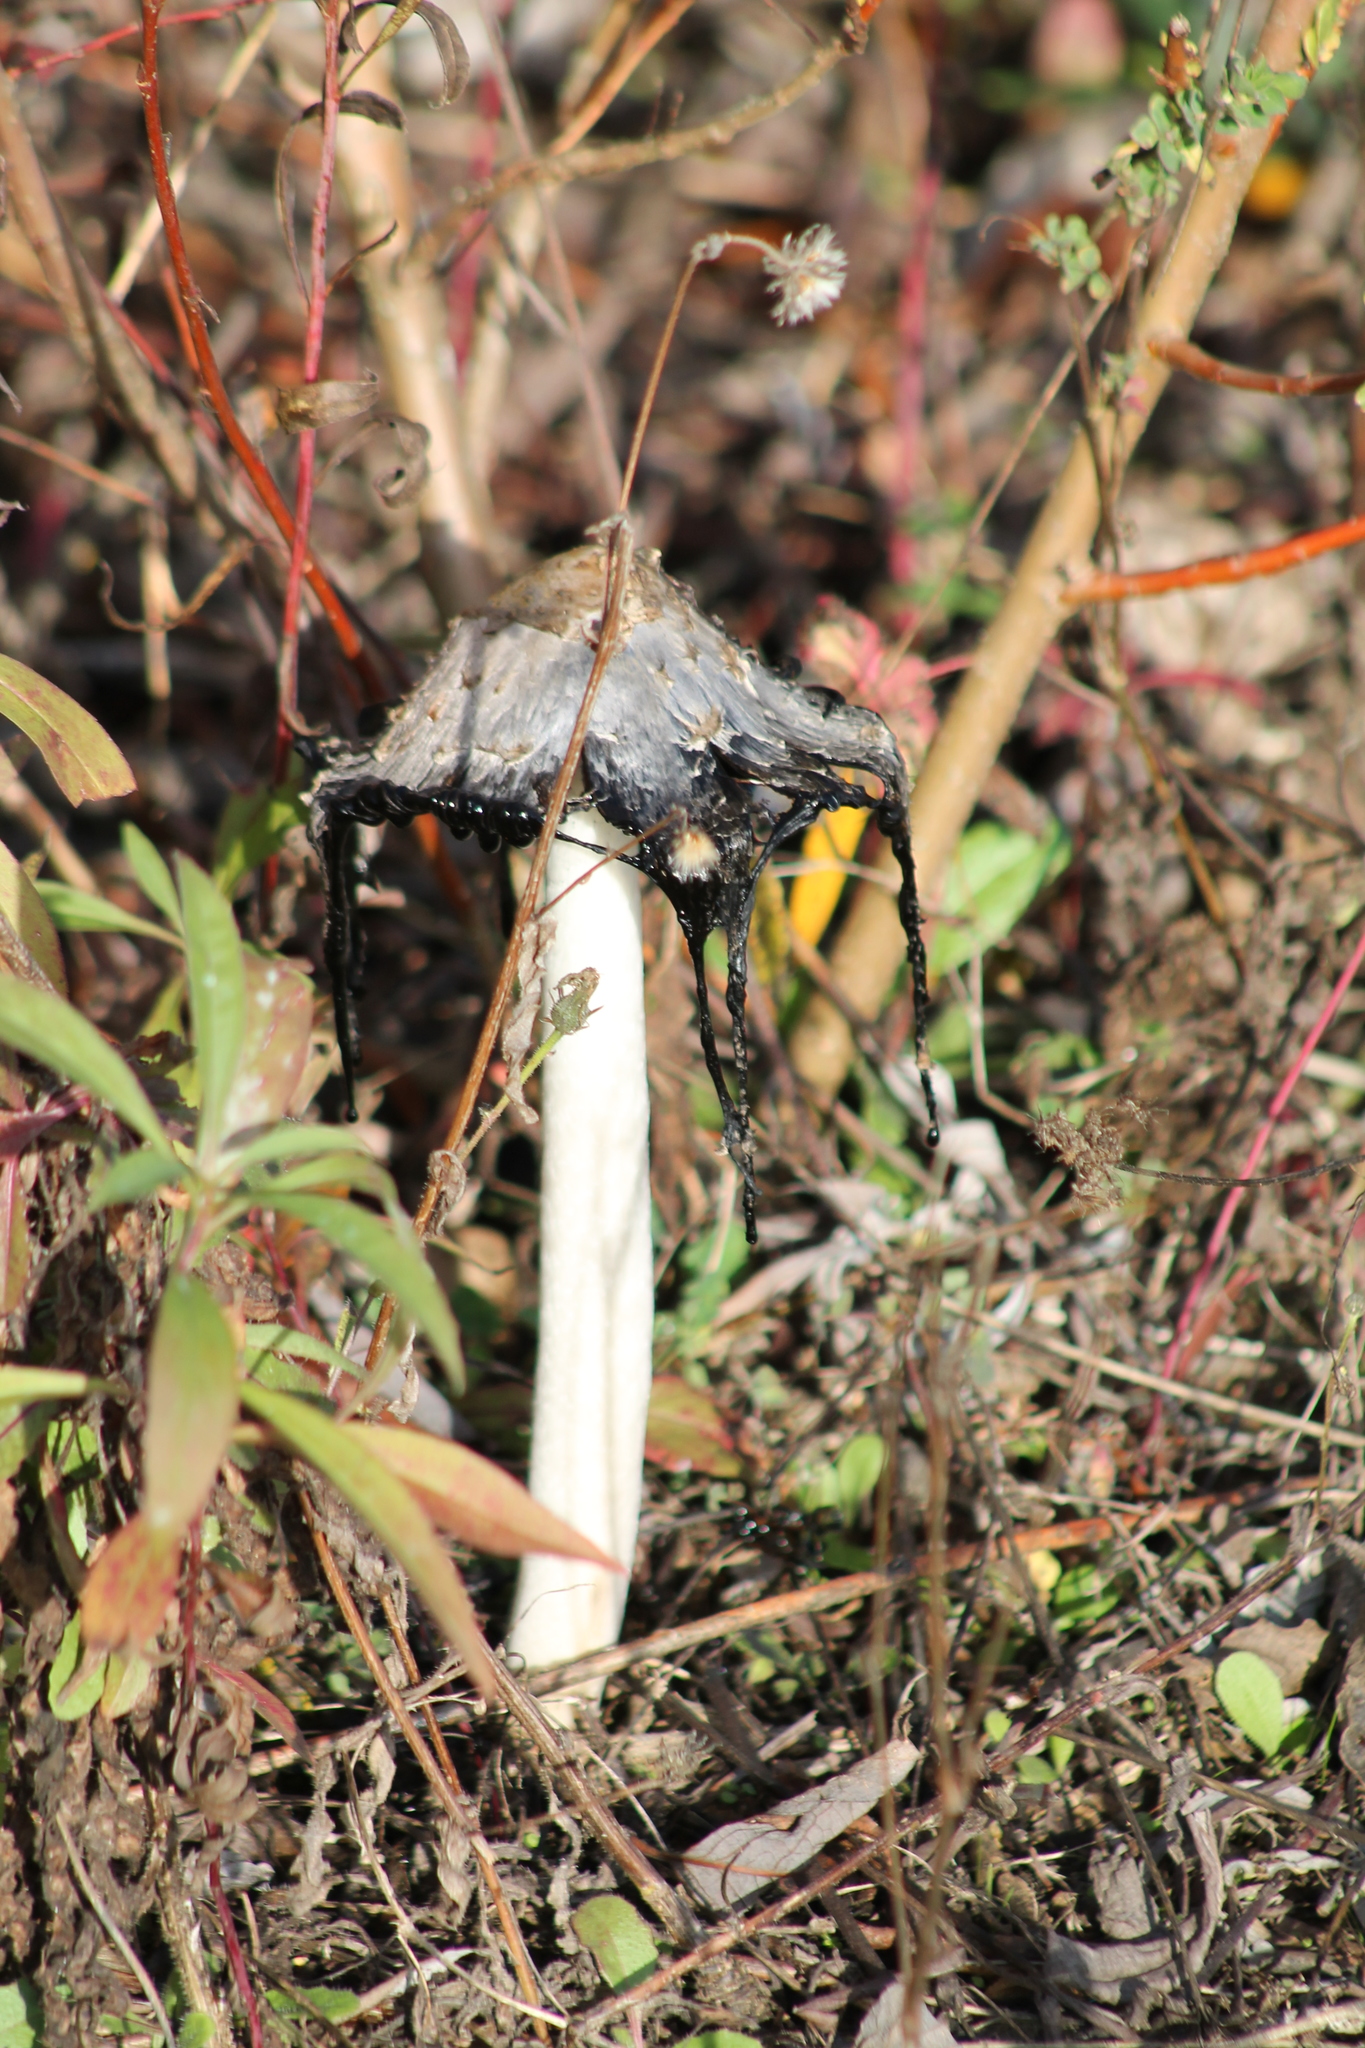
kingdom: Fungi
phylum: Basidiomycota
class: Agaricomycetes
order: Agaricales
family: Agaricaceae
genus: Coprinus
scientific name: Coprinus comatus
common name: Lawyer's wig
